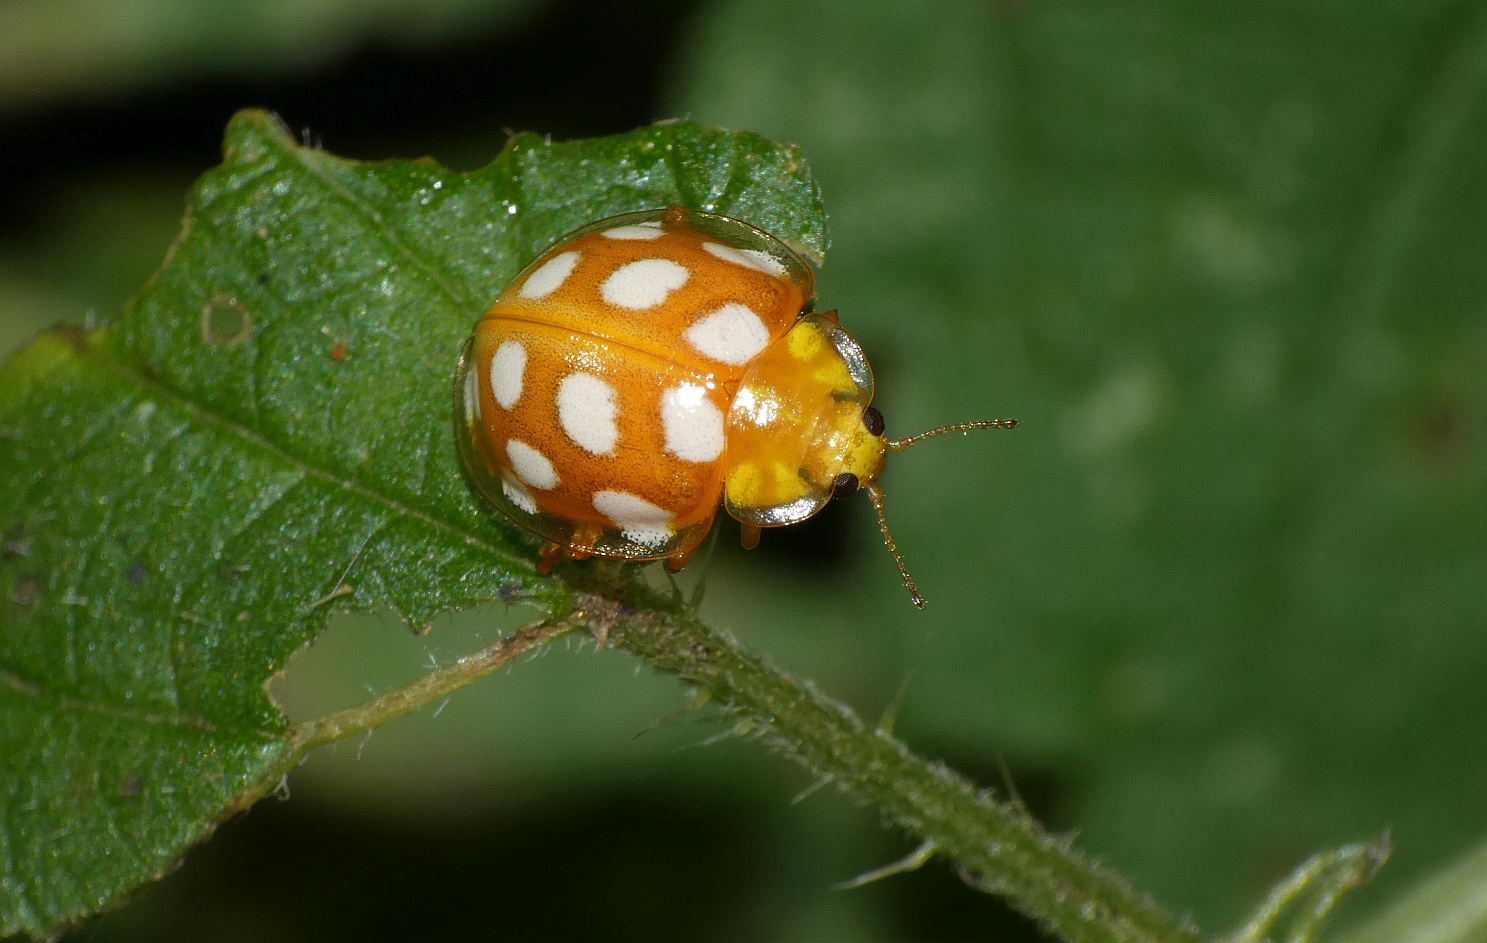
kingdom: Animalia
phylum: Arthropoda
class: Insecta
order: Coleoptera
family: Coccinellidae
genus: Halyzia
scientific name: Halyzia sedecimguttata
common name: Orange ladybird
